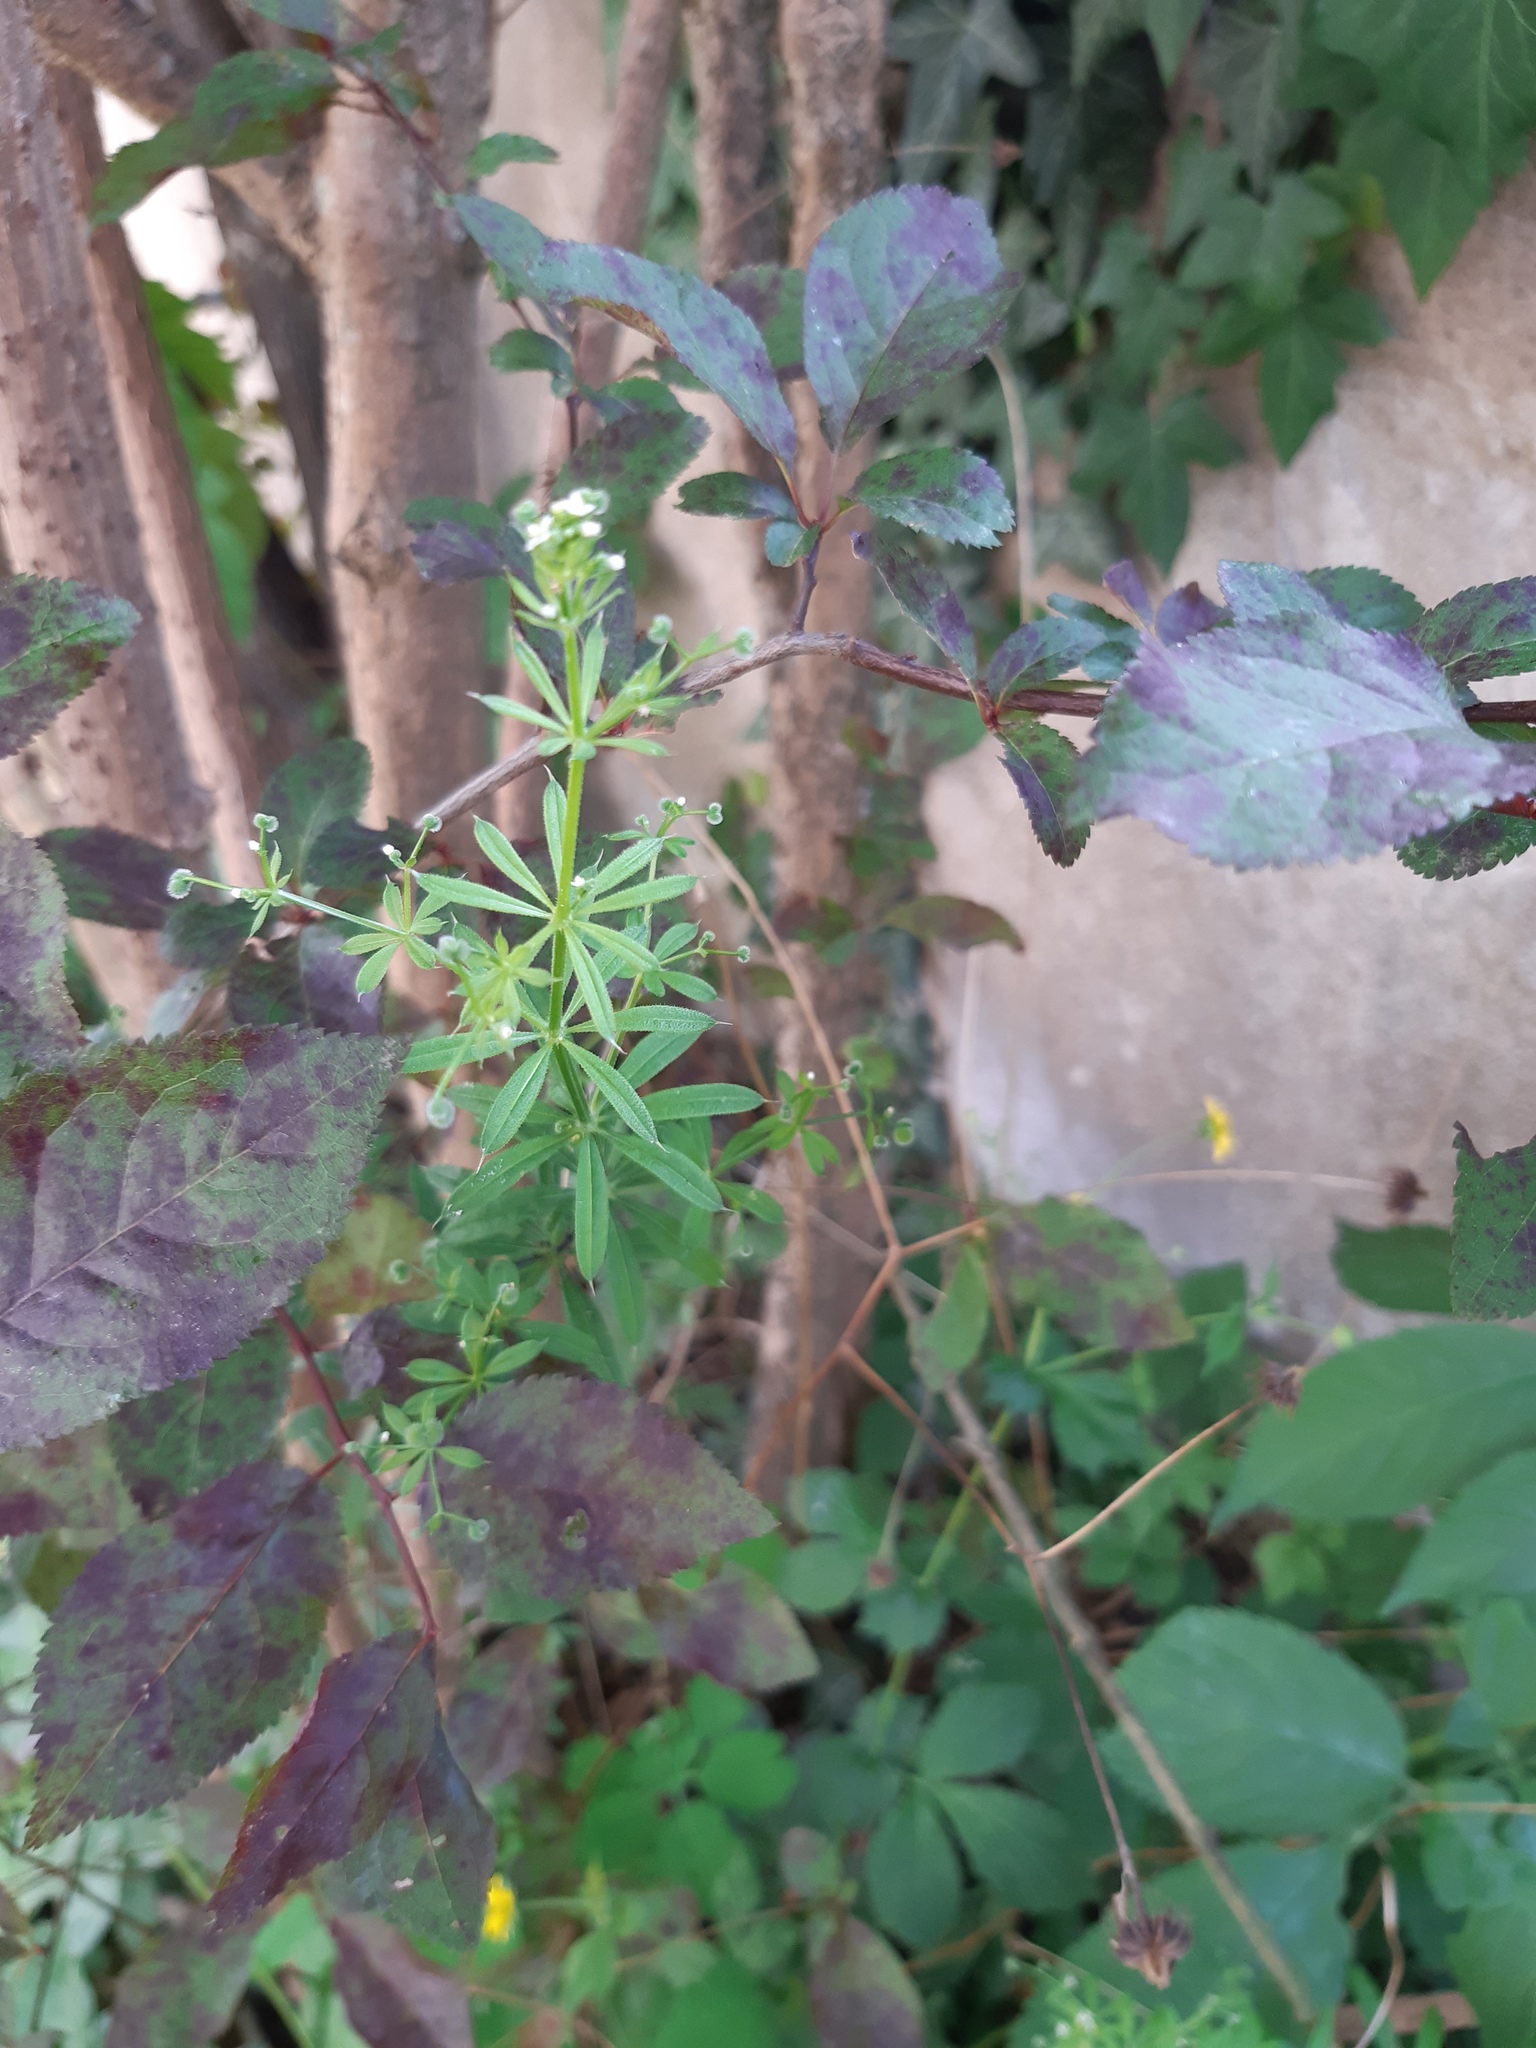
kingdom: Plantae
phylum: Tracheophyta
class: Magnoliopsida
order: Gentianales
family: Rubiaceae
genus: Galium
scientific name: Galium aparine
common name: Cleavers
